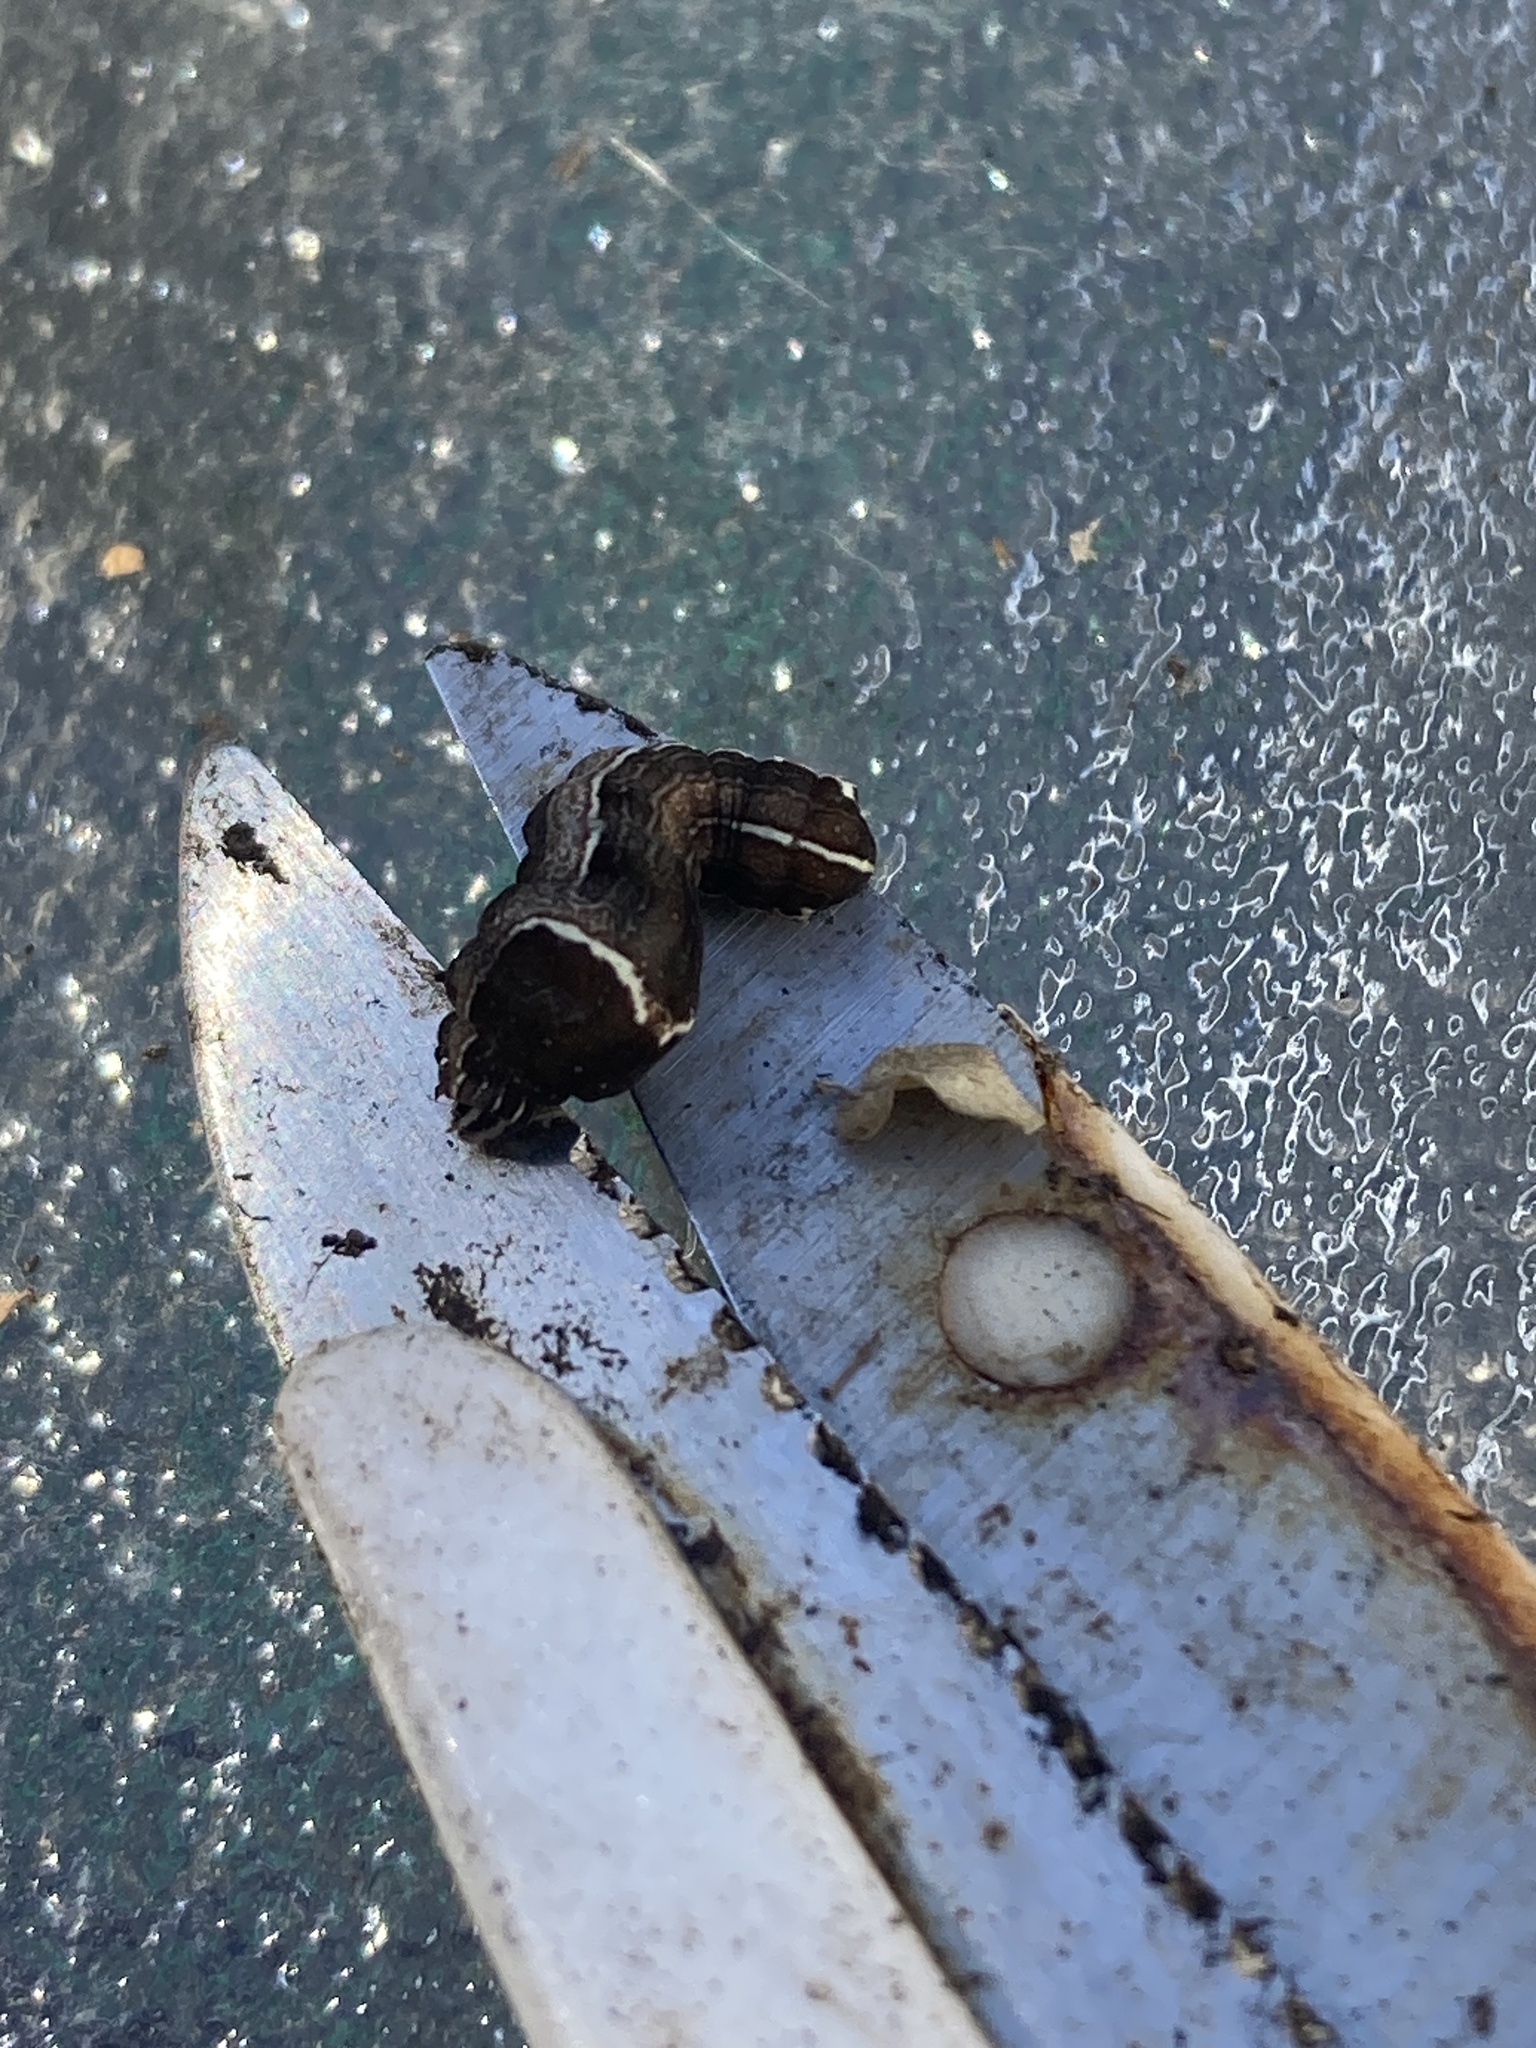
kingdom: Animalia
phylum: Arthropoda
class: Insecta
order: Lepidoptera
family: Noctuidae
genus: Galgula
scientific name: Galgula partita
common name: Wedgeling
